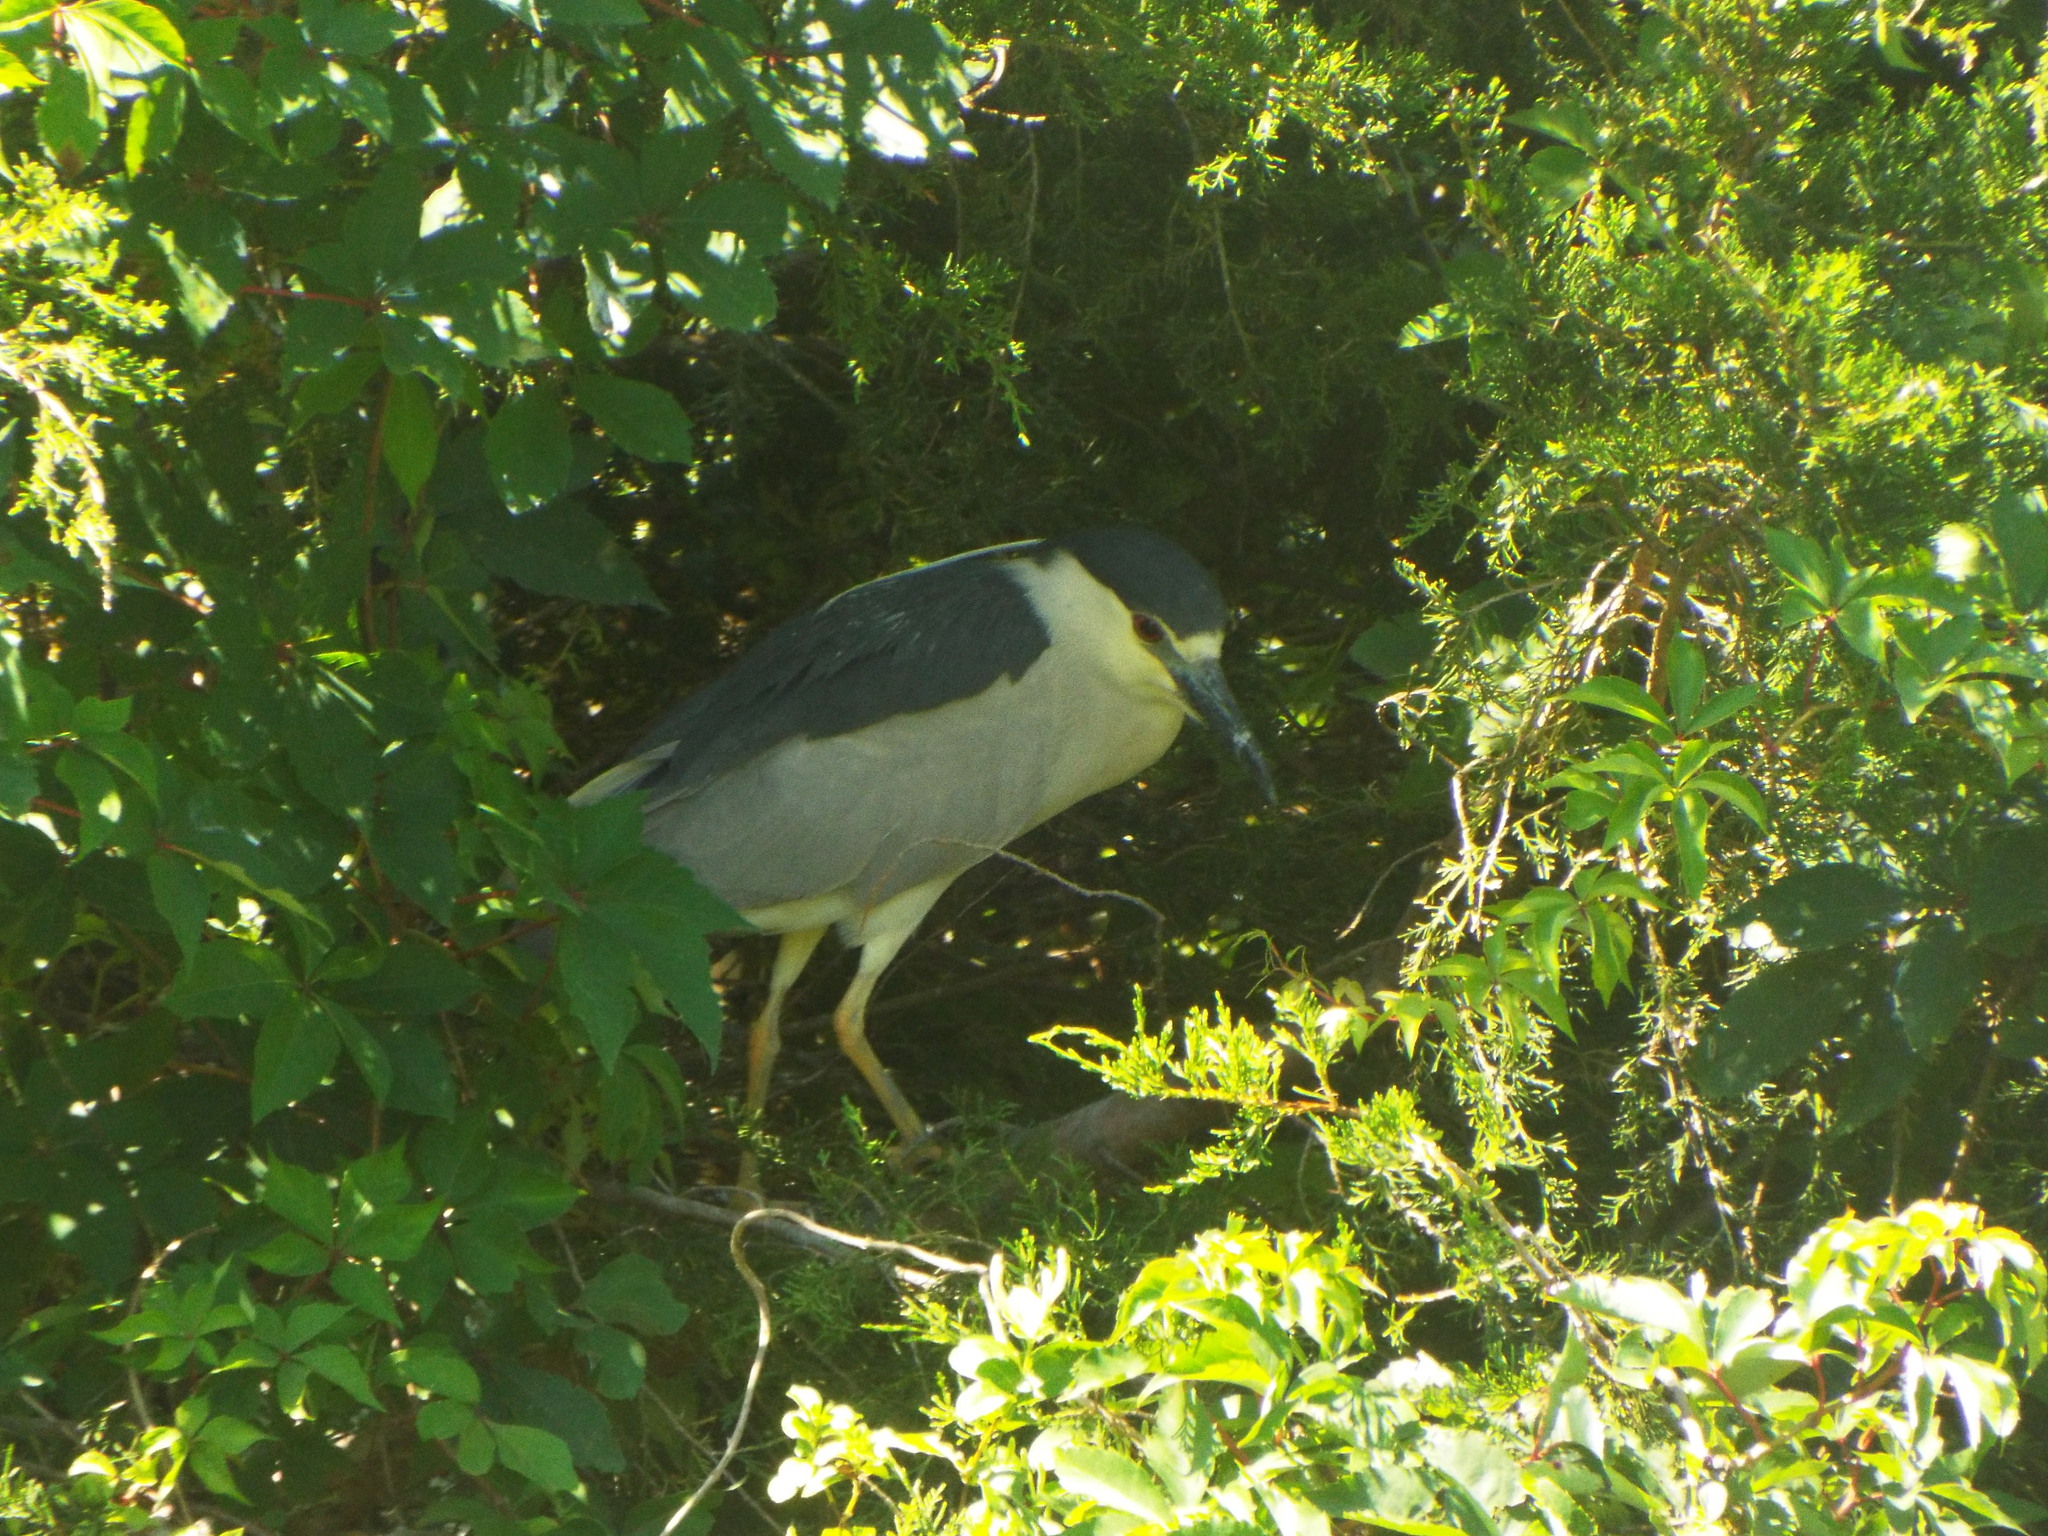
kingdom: Animalia
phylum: Chordata
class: Aves
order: Pelecaniformes
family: Ardeidae
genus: Nycticorax
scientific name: Nycticorax nycticorax
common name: Black-crowned night heron
